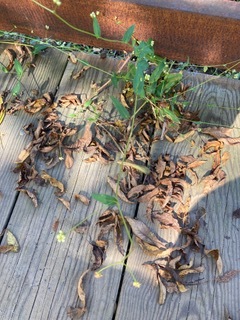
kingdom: Plantae
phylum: Tracheophyta
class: Magnoliopsida
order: Caryophyllales
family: Polygonaceae
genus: Persicaria
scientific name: Persicaria sagittata
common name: American tearthumb
